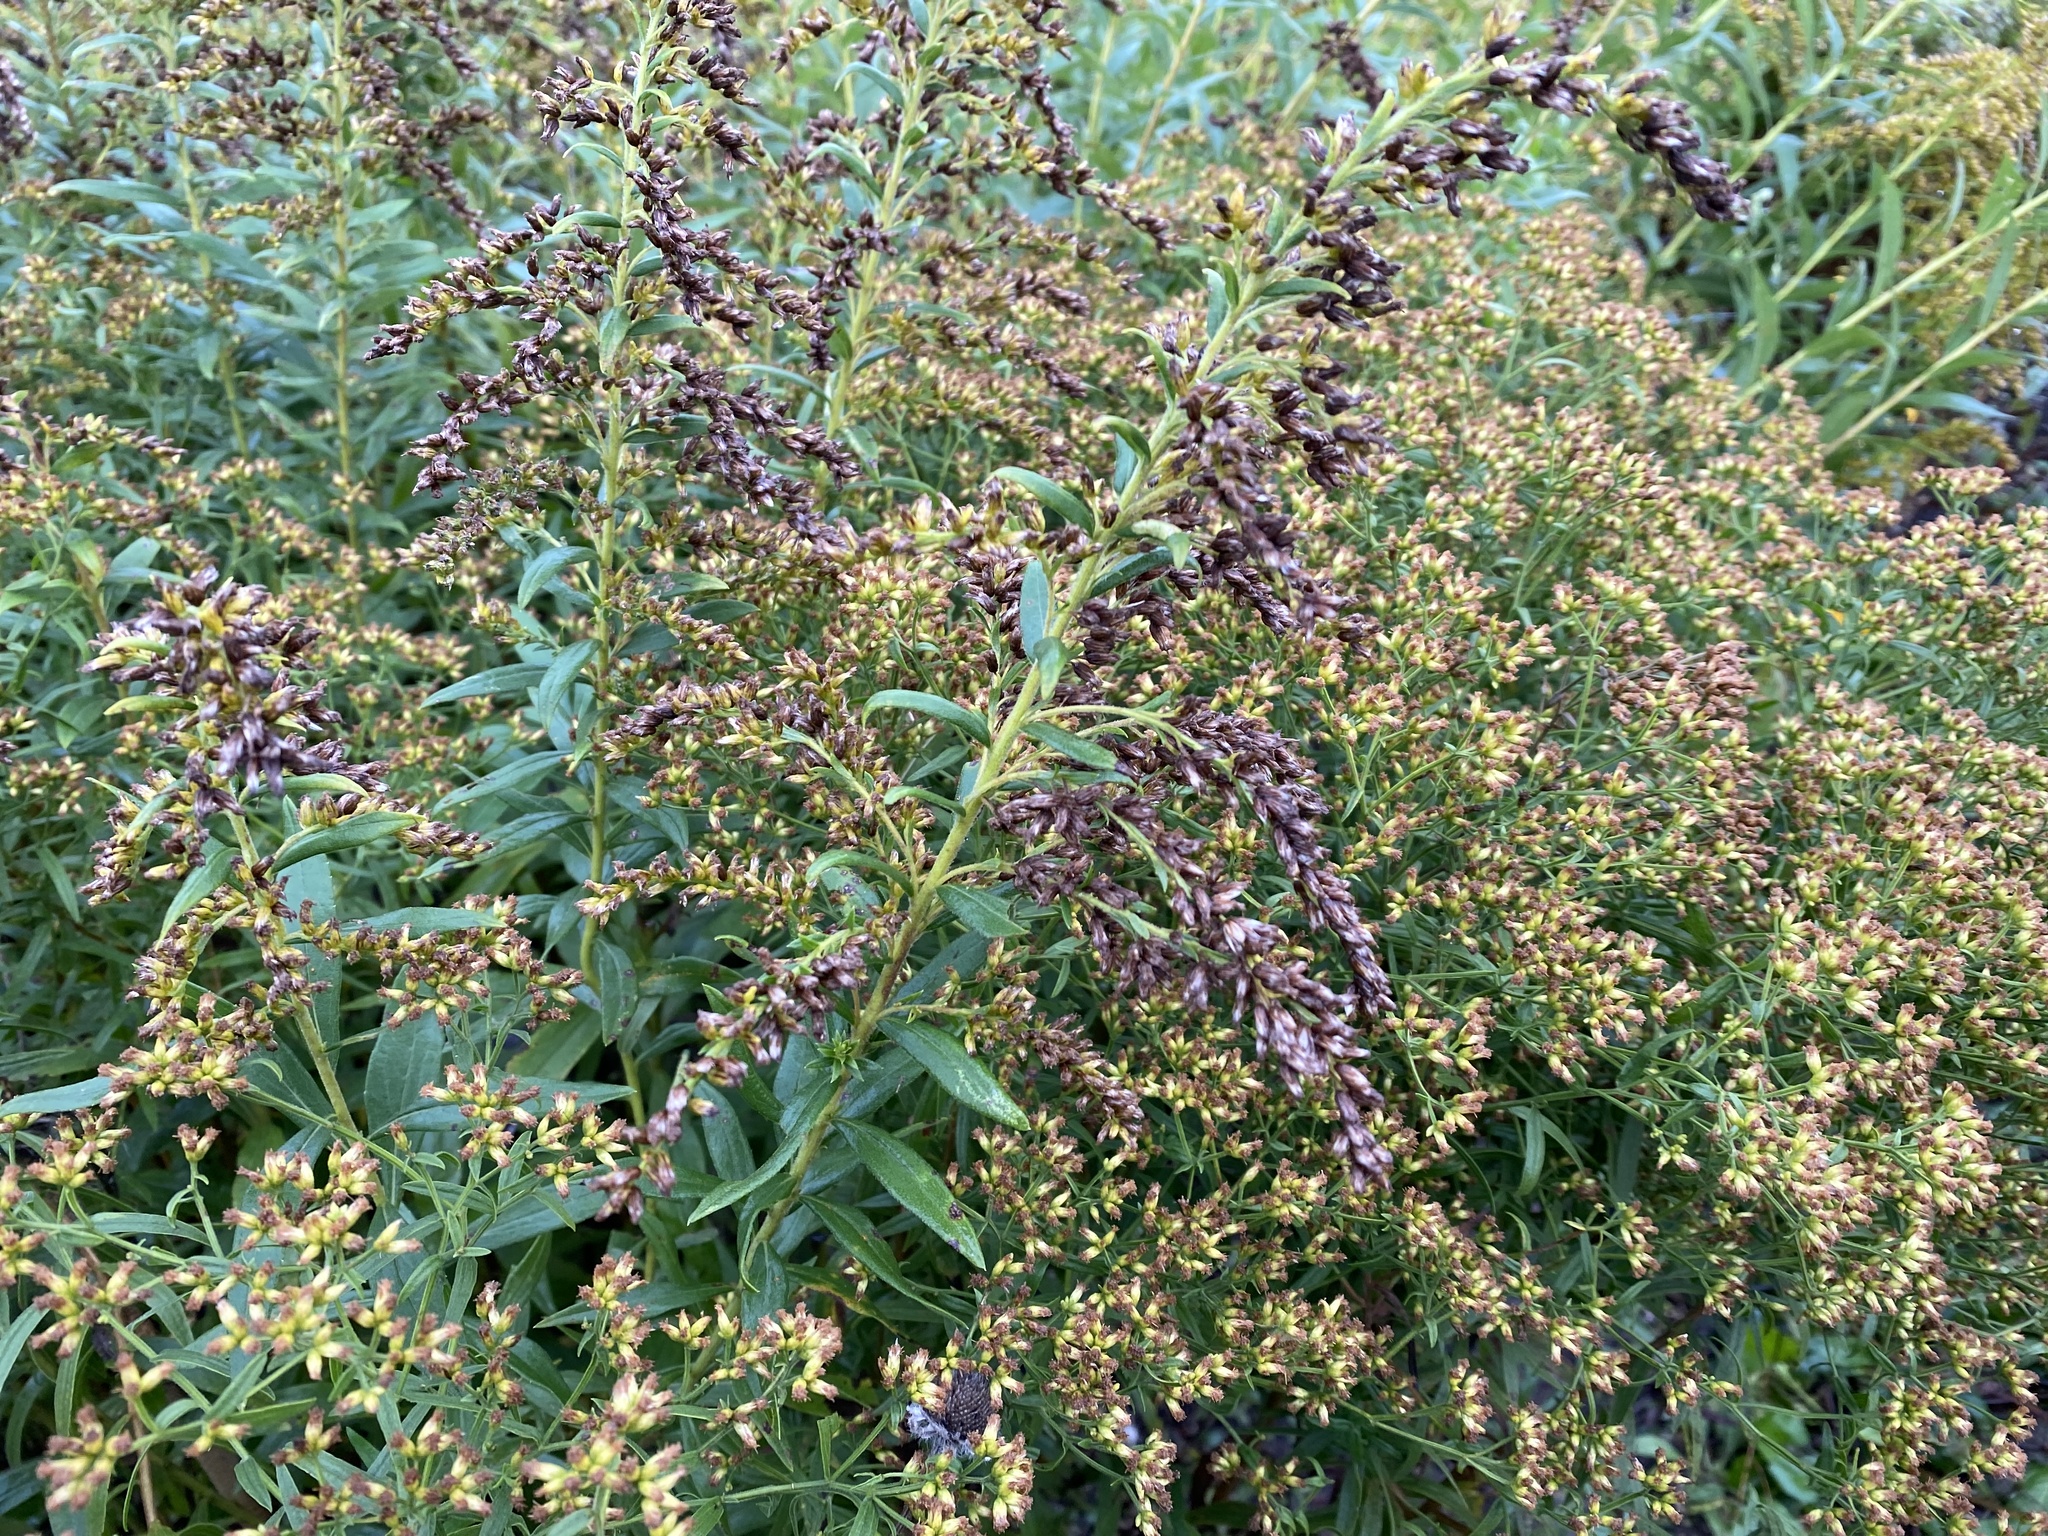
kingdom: Plantae
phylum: Tracheophyta
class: Magnoliopsida
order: Asterales
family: Asteraceae
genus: Euthamia
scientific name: Euthamia graminifolia
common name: Common goldentop
